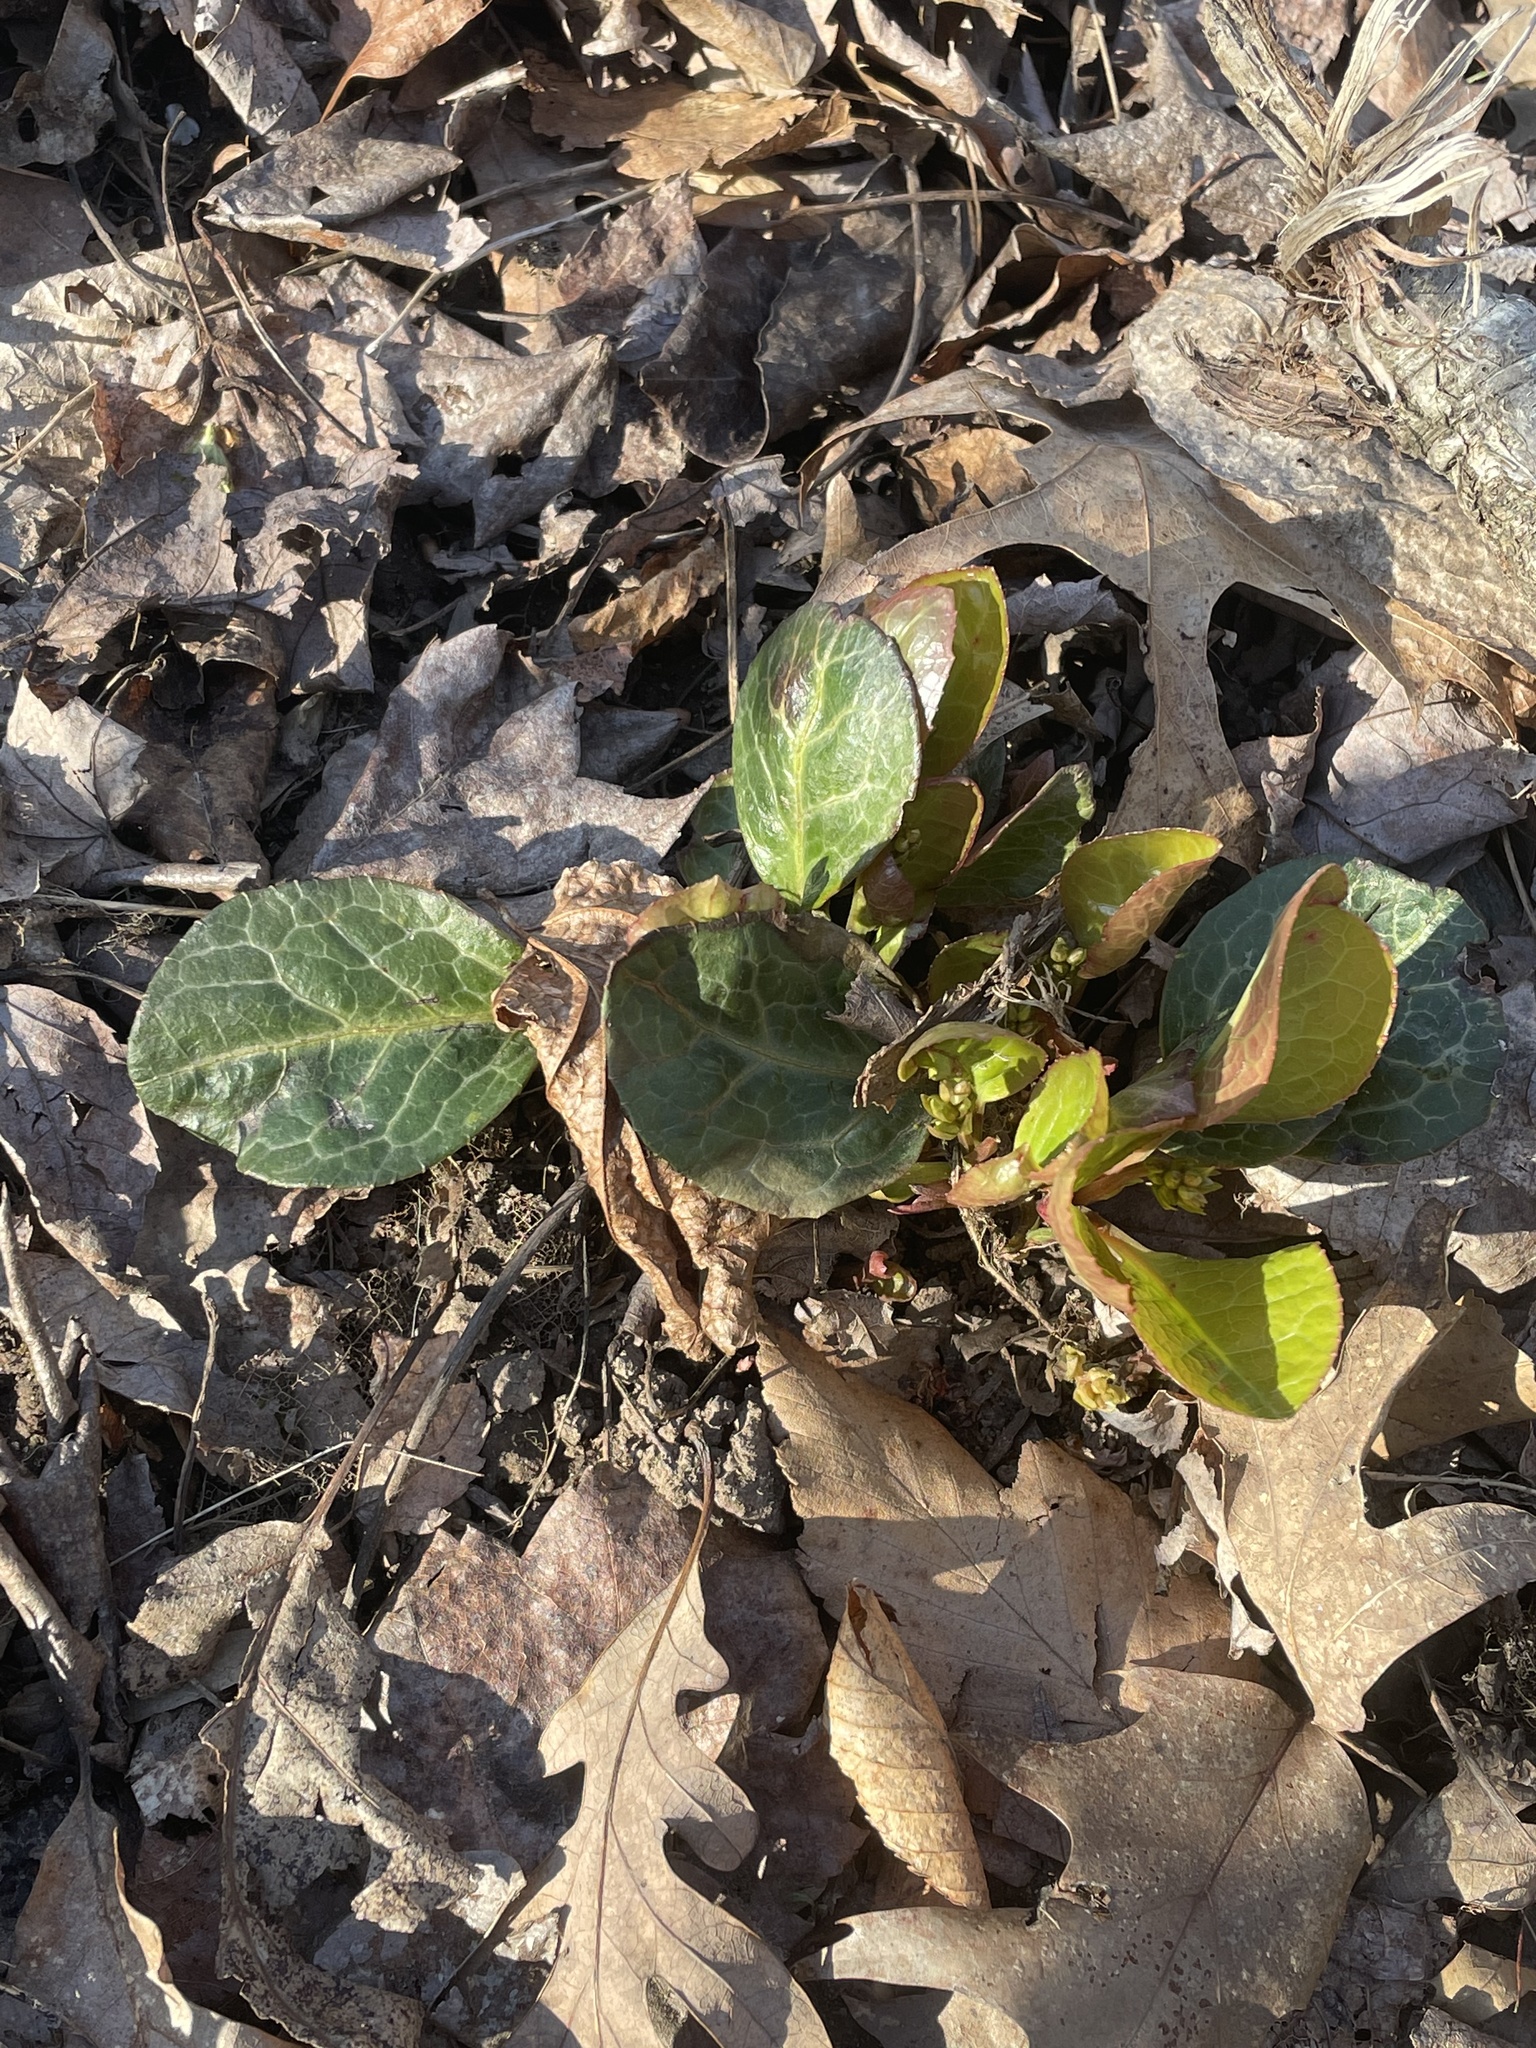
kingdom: Plantae
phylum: Tracheophyta
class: Magnoliopsida
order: Ericales
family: Ericaceae
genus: Pyrola
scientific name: Pyrola americana
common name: American wintergreen
